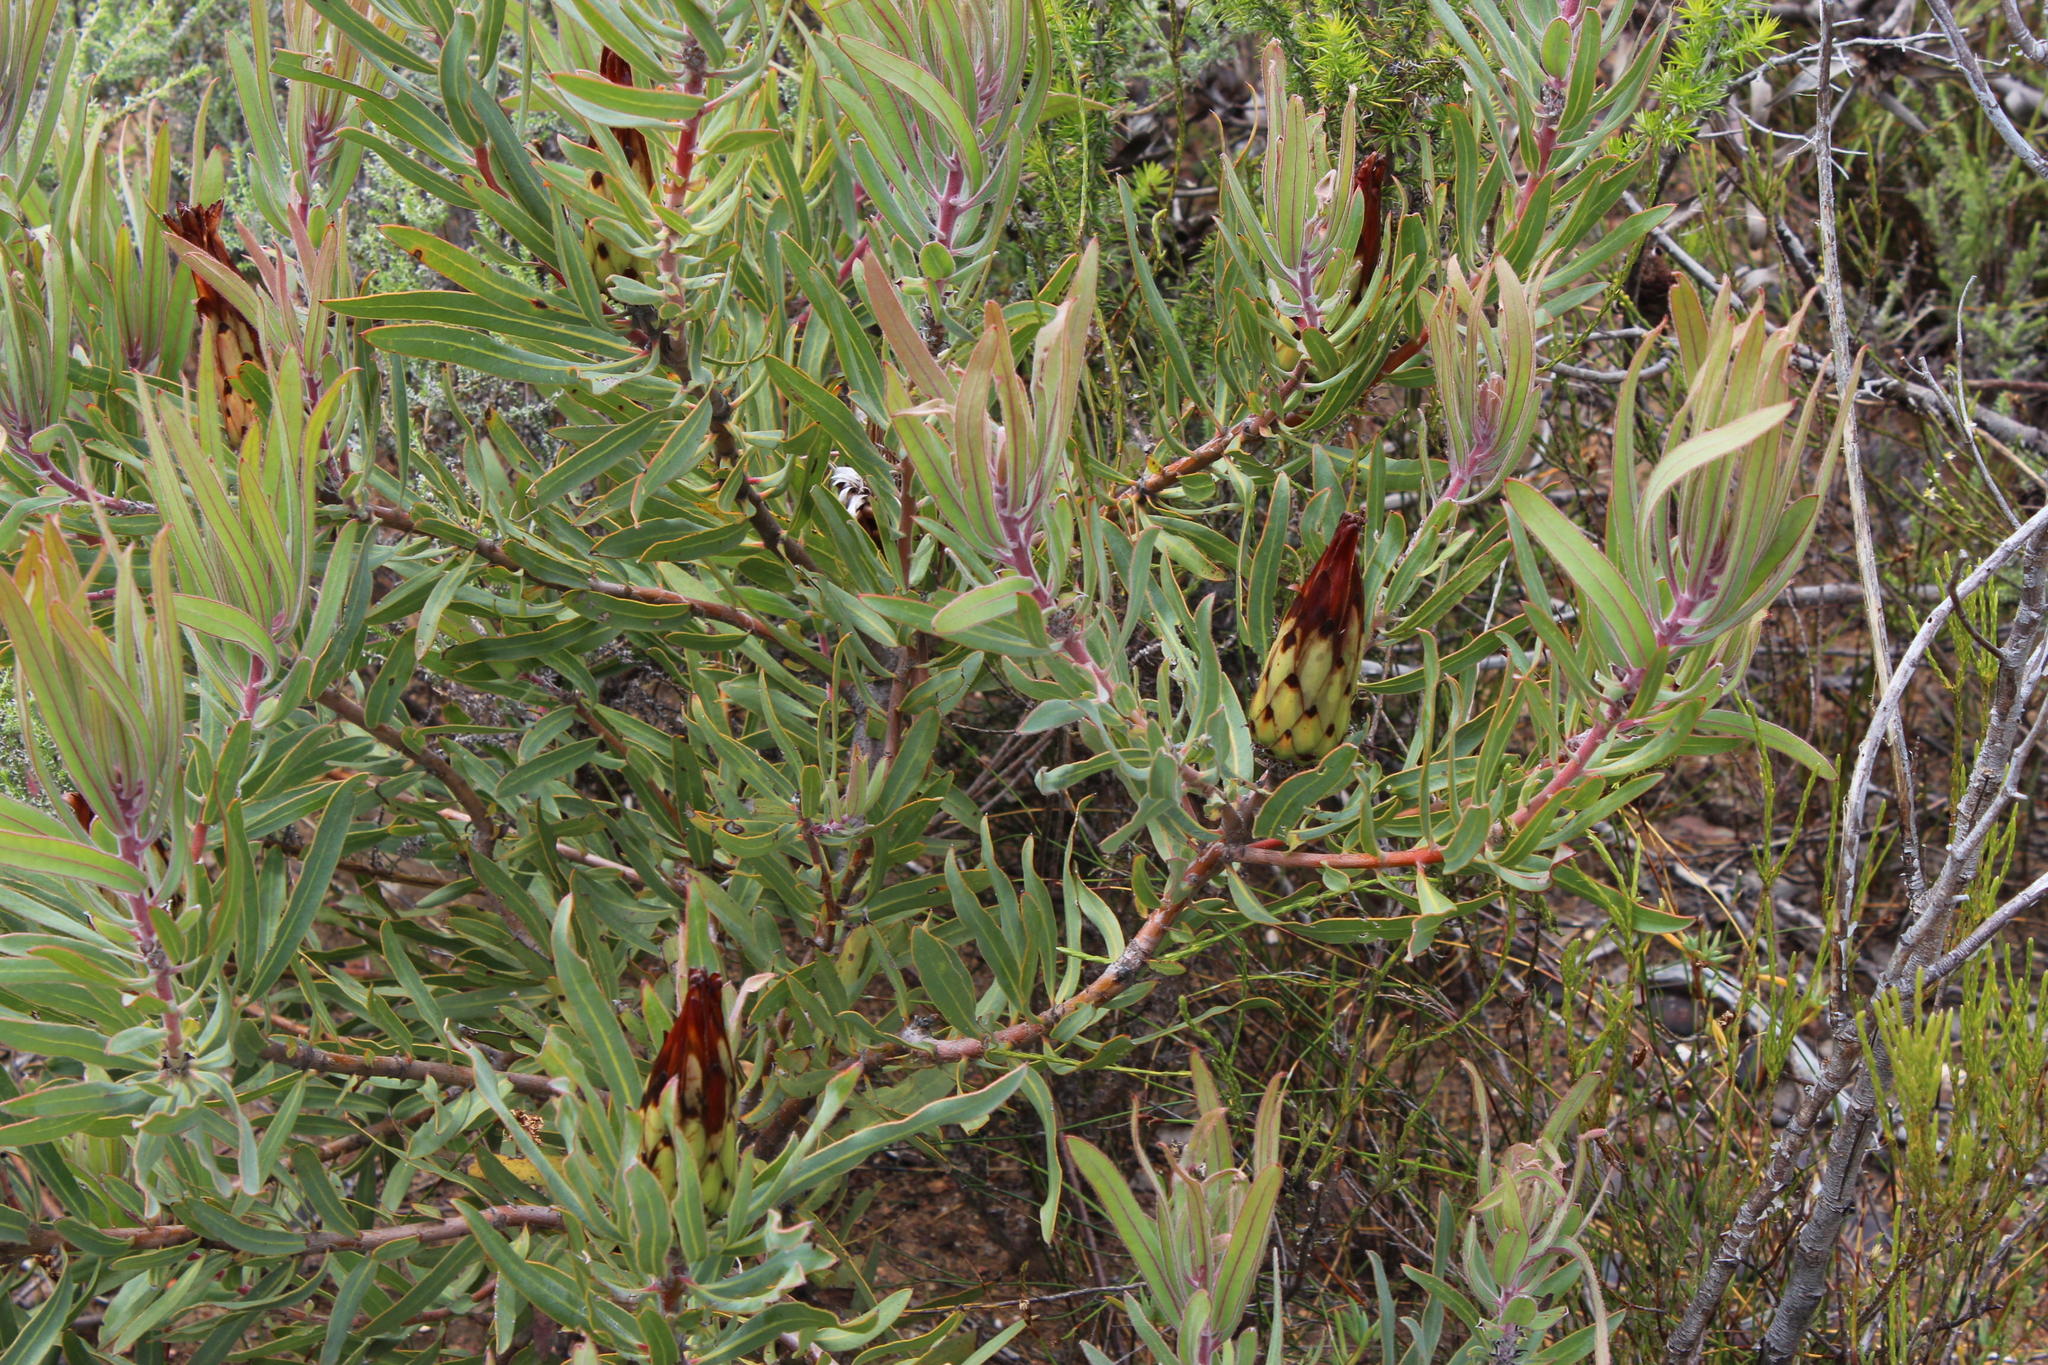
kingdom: Plantae
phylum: Tracheophyta
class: Magnoliopsida
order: Proteales
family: Proteaceae
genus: Protea
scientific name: Protea burchellii
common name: Burchell's sugarbush
